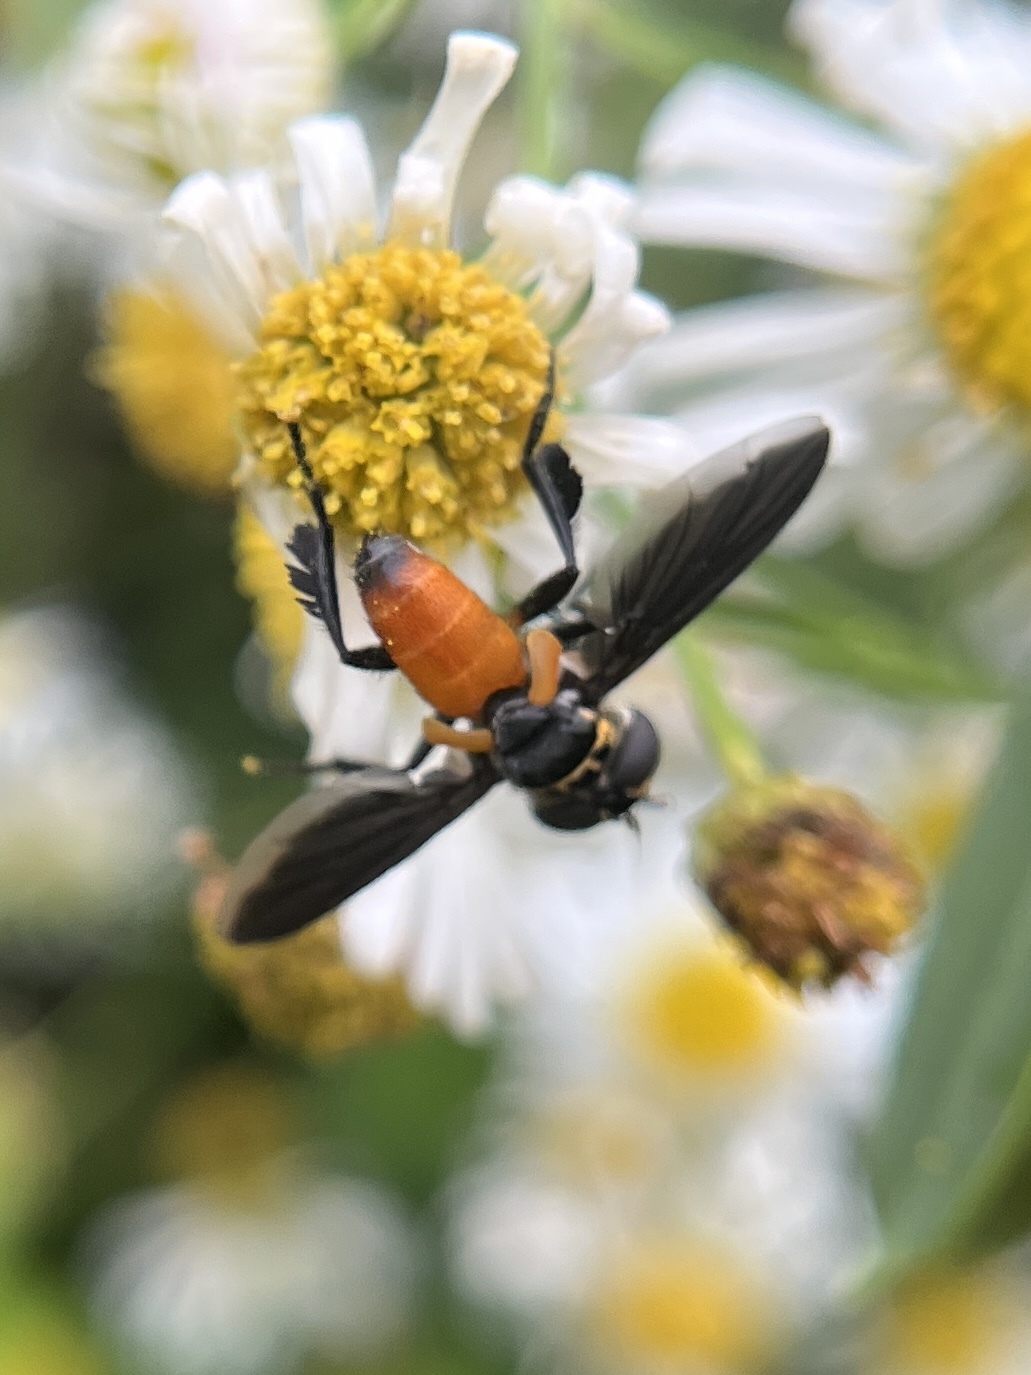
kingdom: Animalia
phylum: Arthropoda
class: Insecta
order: Diptera
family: Tachinidae
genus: Trichopoda
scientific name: Trichopoda pennipes
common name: Tachinid fly
